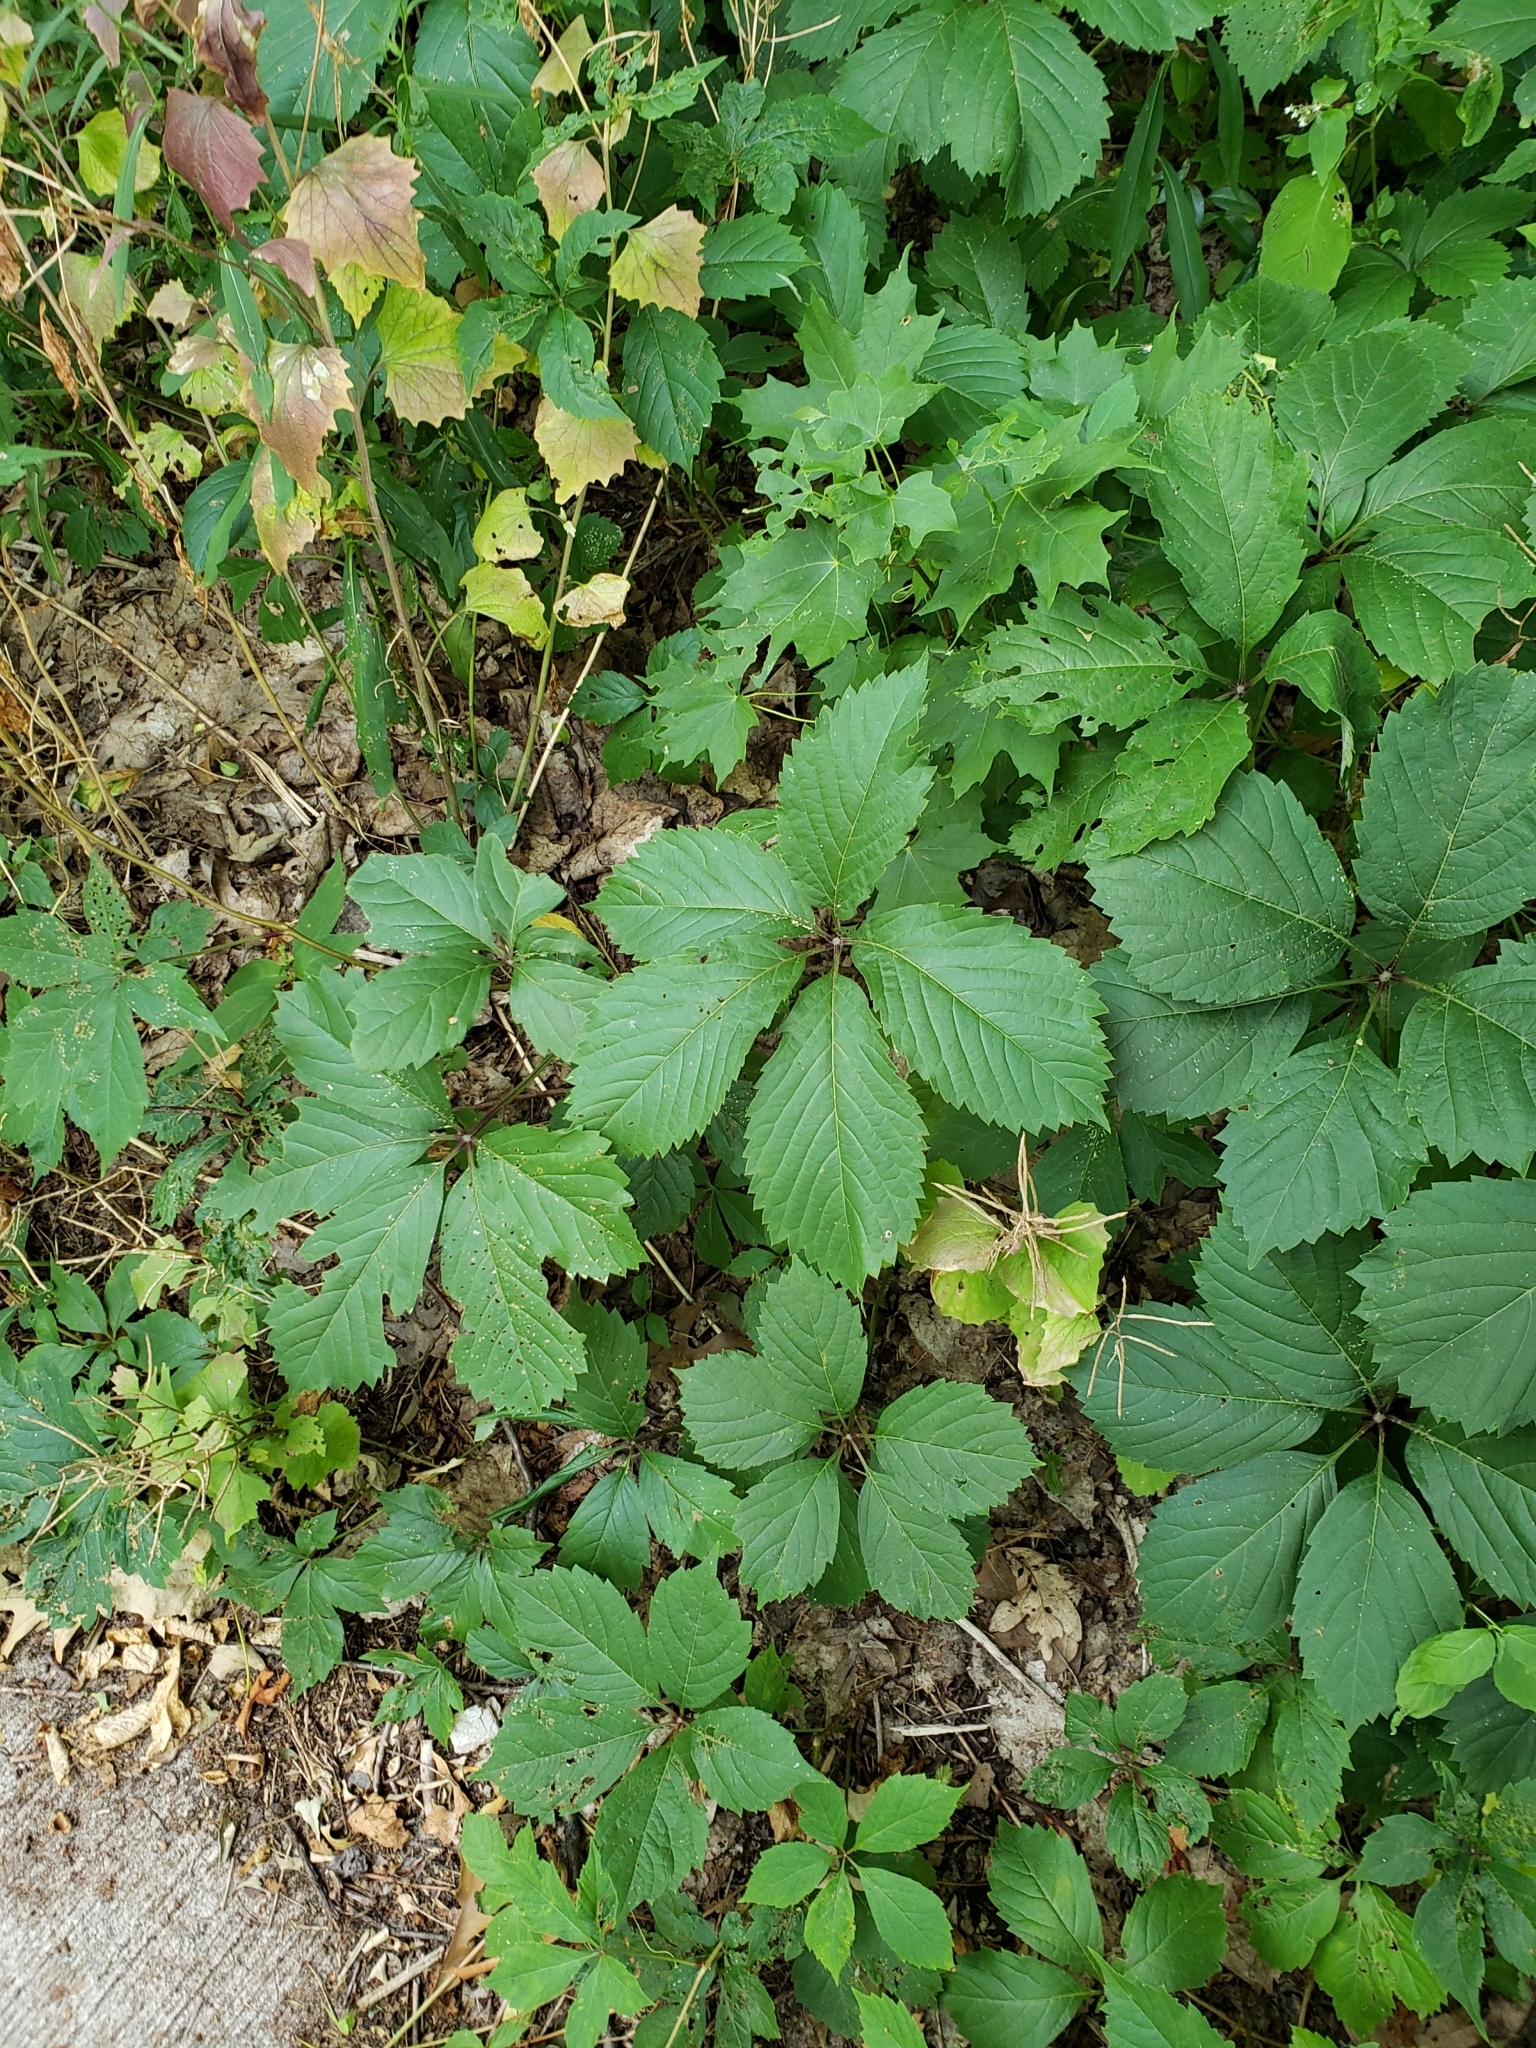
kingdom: Plantae
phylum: Tracheophyta
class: Magnoliopsida
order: Vitales
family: Vitaceae
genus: Parthenocissus
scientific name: Parthenocissus inserta
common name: False virginia-creeper
